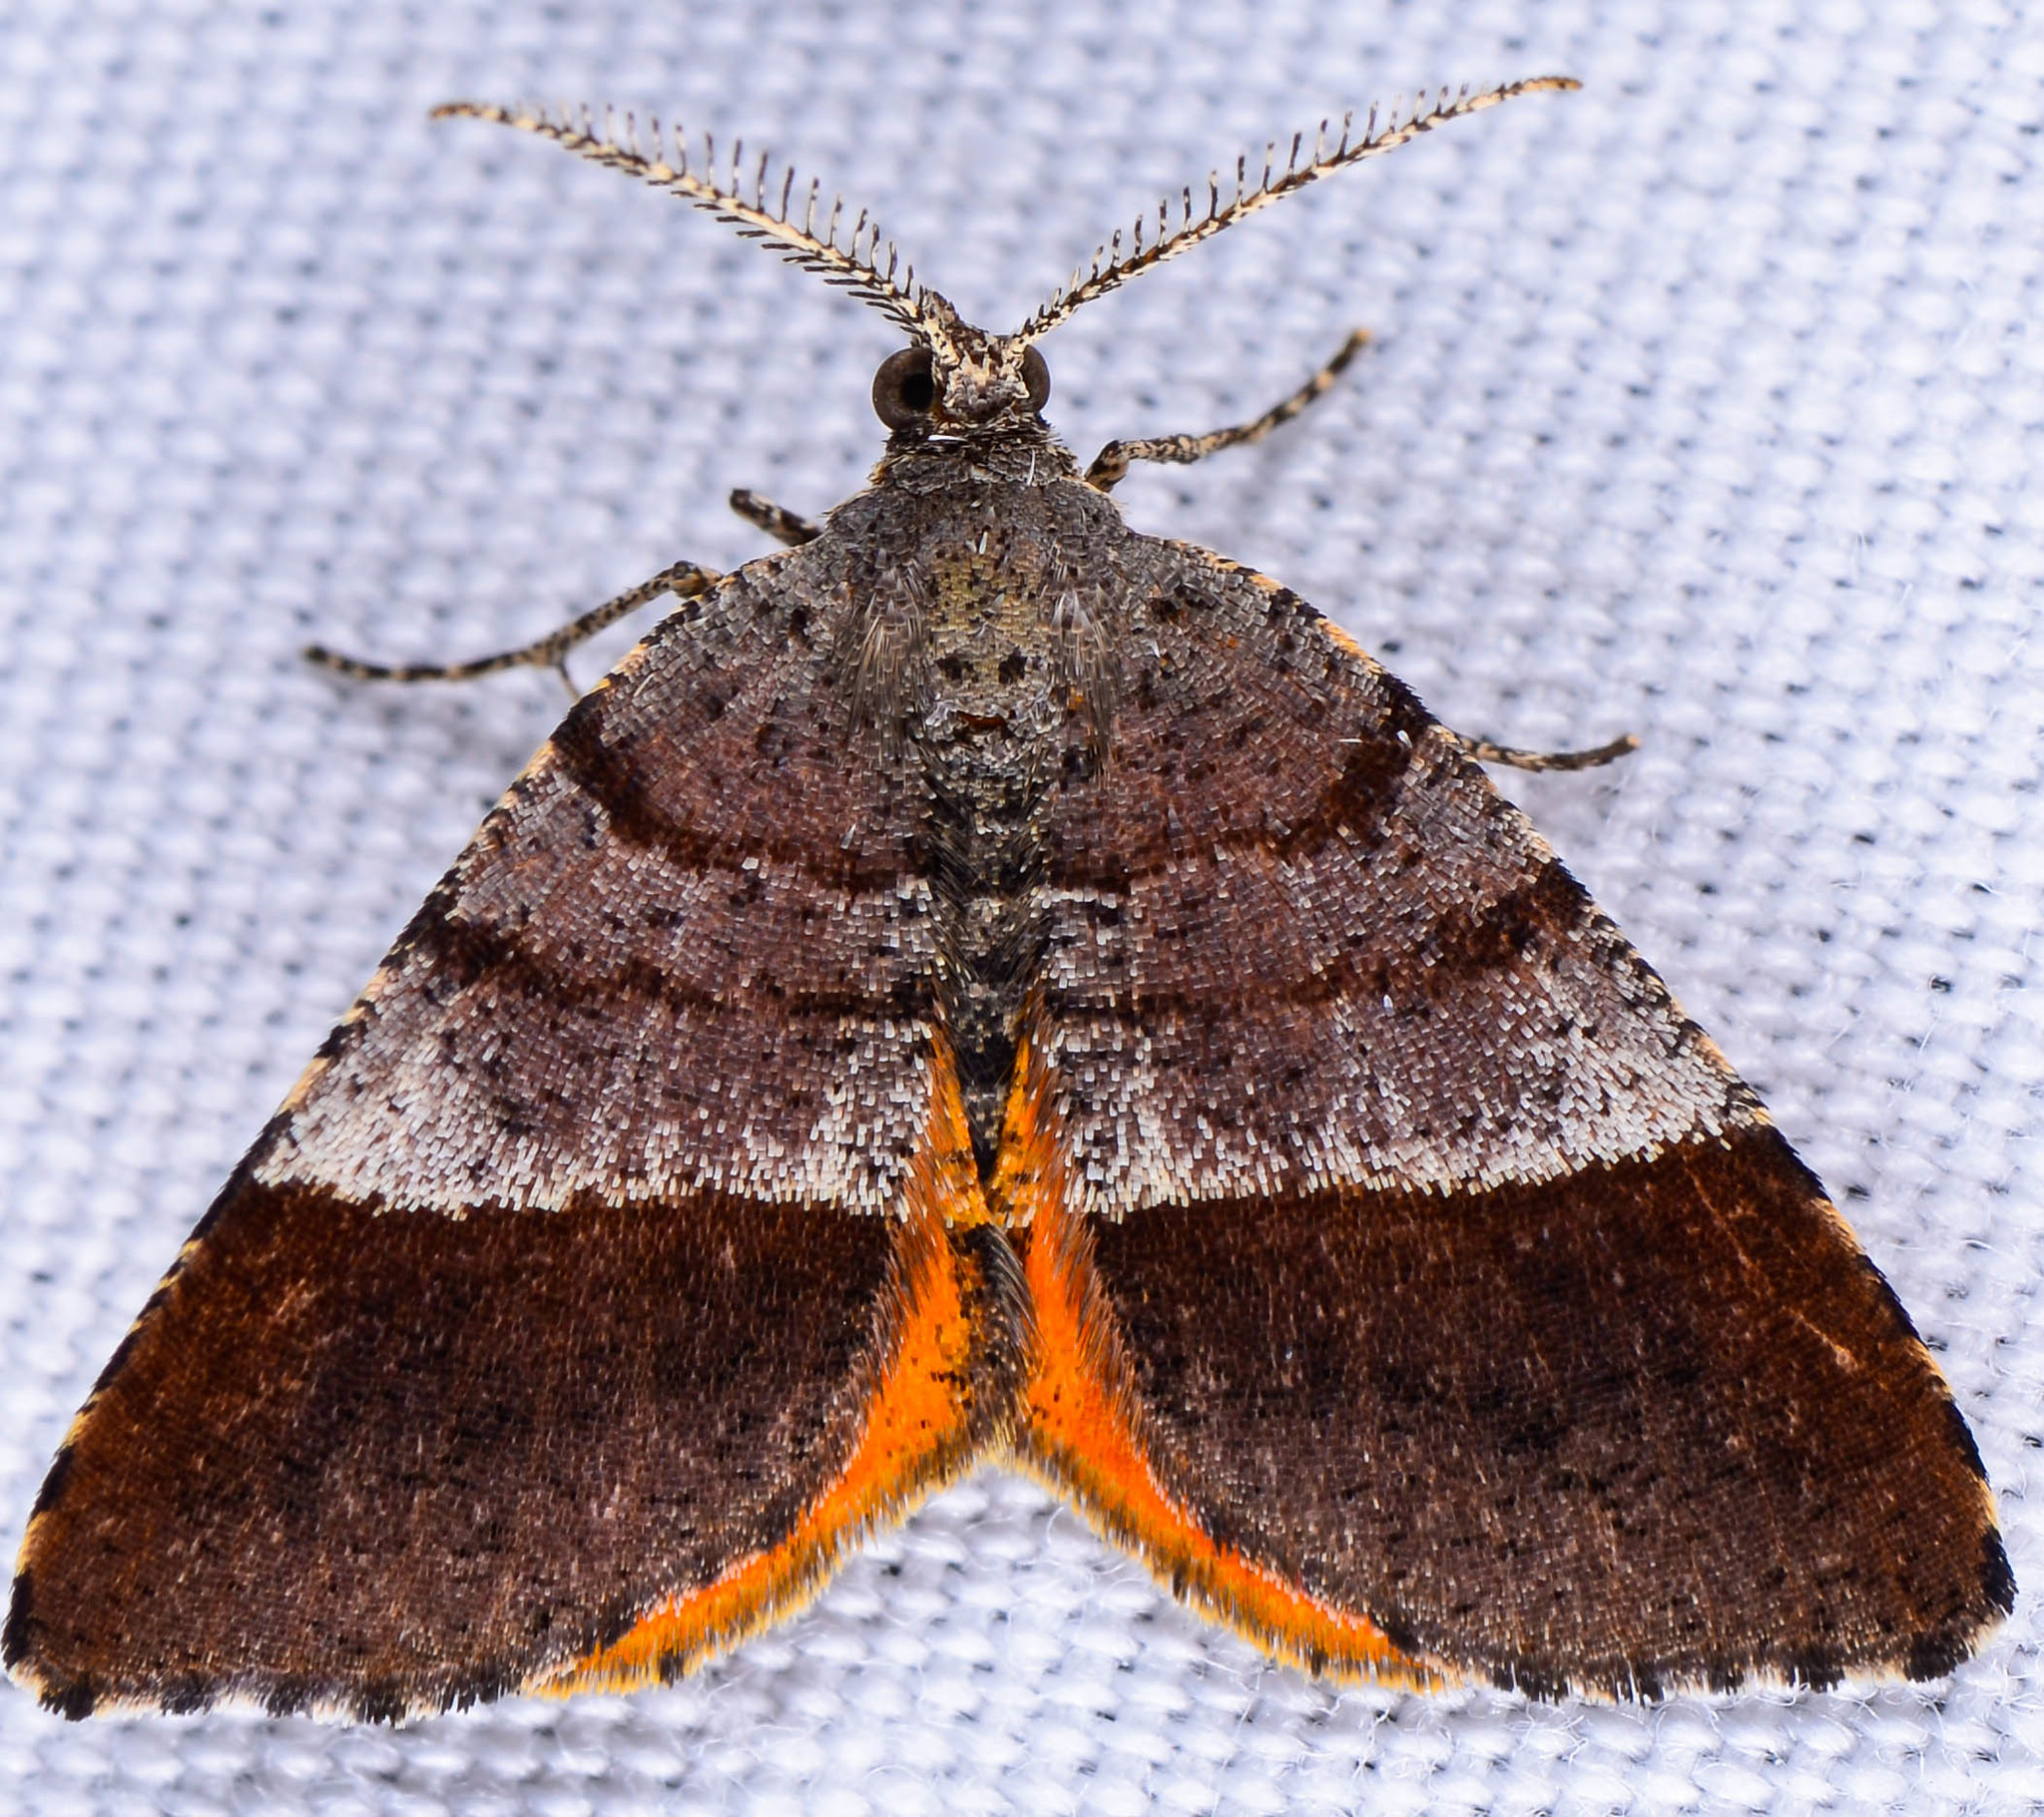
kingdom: Animalia
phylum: Arthropoda
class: Insecta
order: Lepidoptera
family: Geometridae
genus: Mellilla
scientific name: Mellilla xanthometata
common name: Orange wing moth
